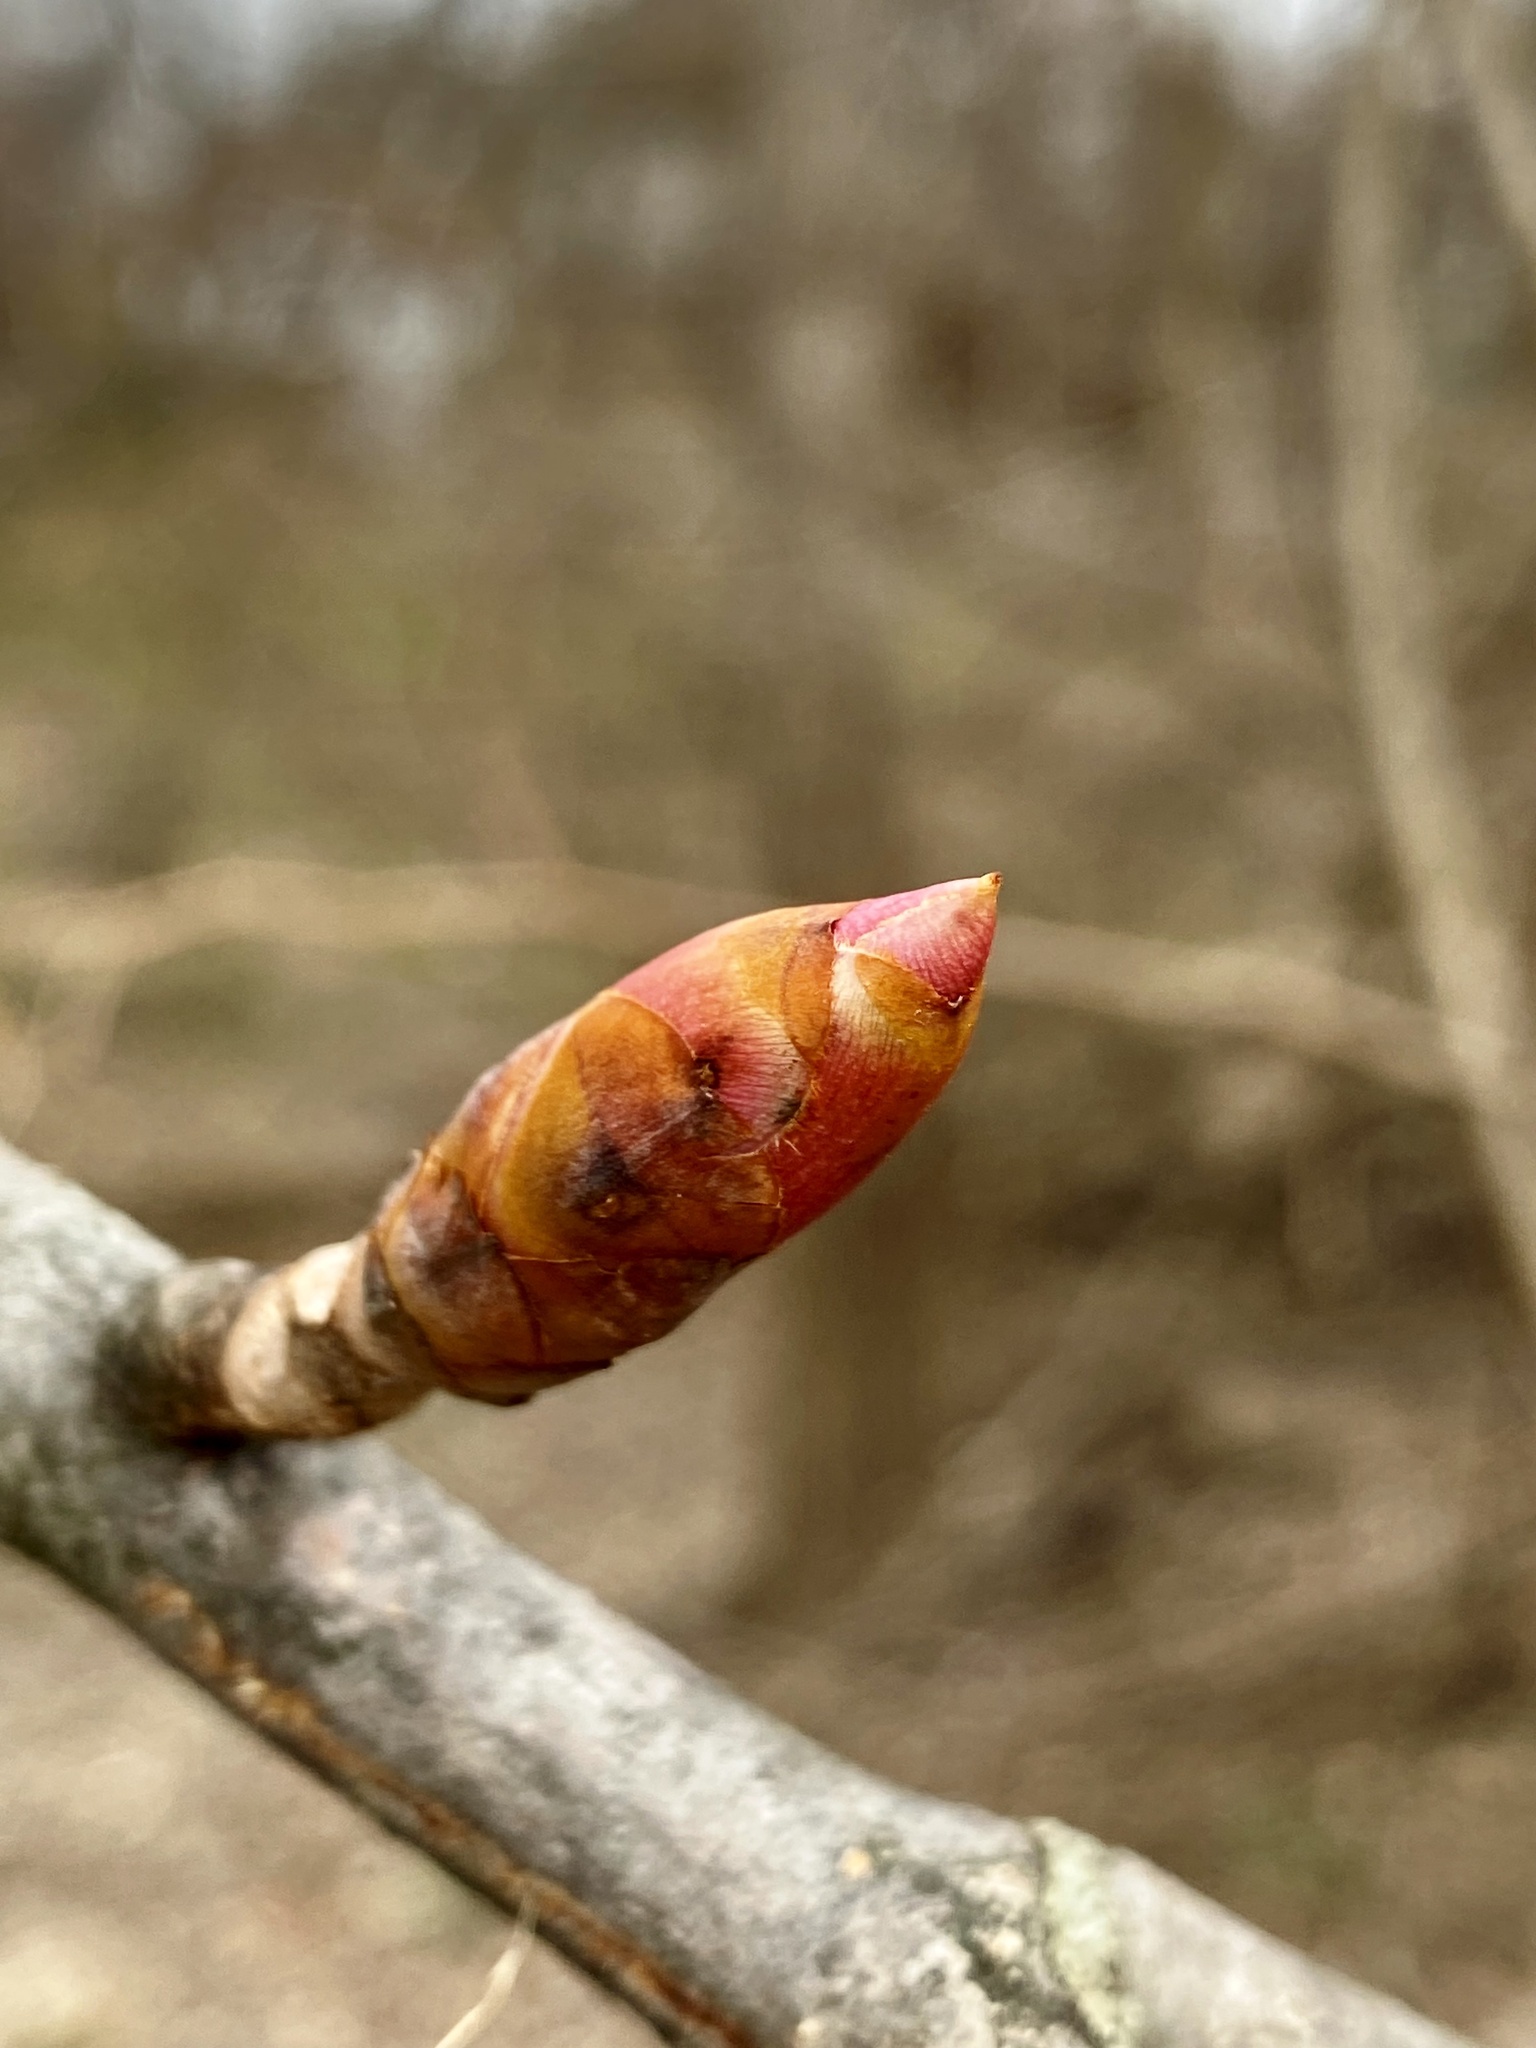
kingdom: Plantae
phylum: Tracheophyta
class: Magnoliopsida
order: Sapindales
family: Sapindaceae
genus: Aesculus
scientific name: Aesculus flava
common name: Yellow buckeye
